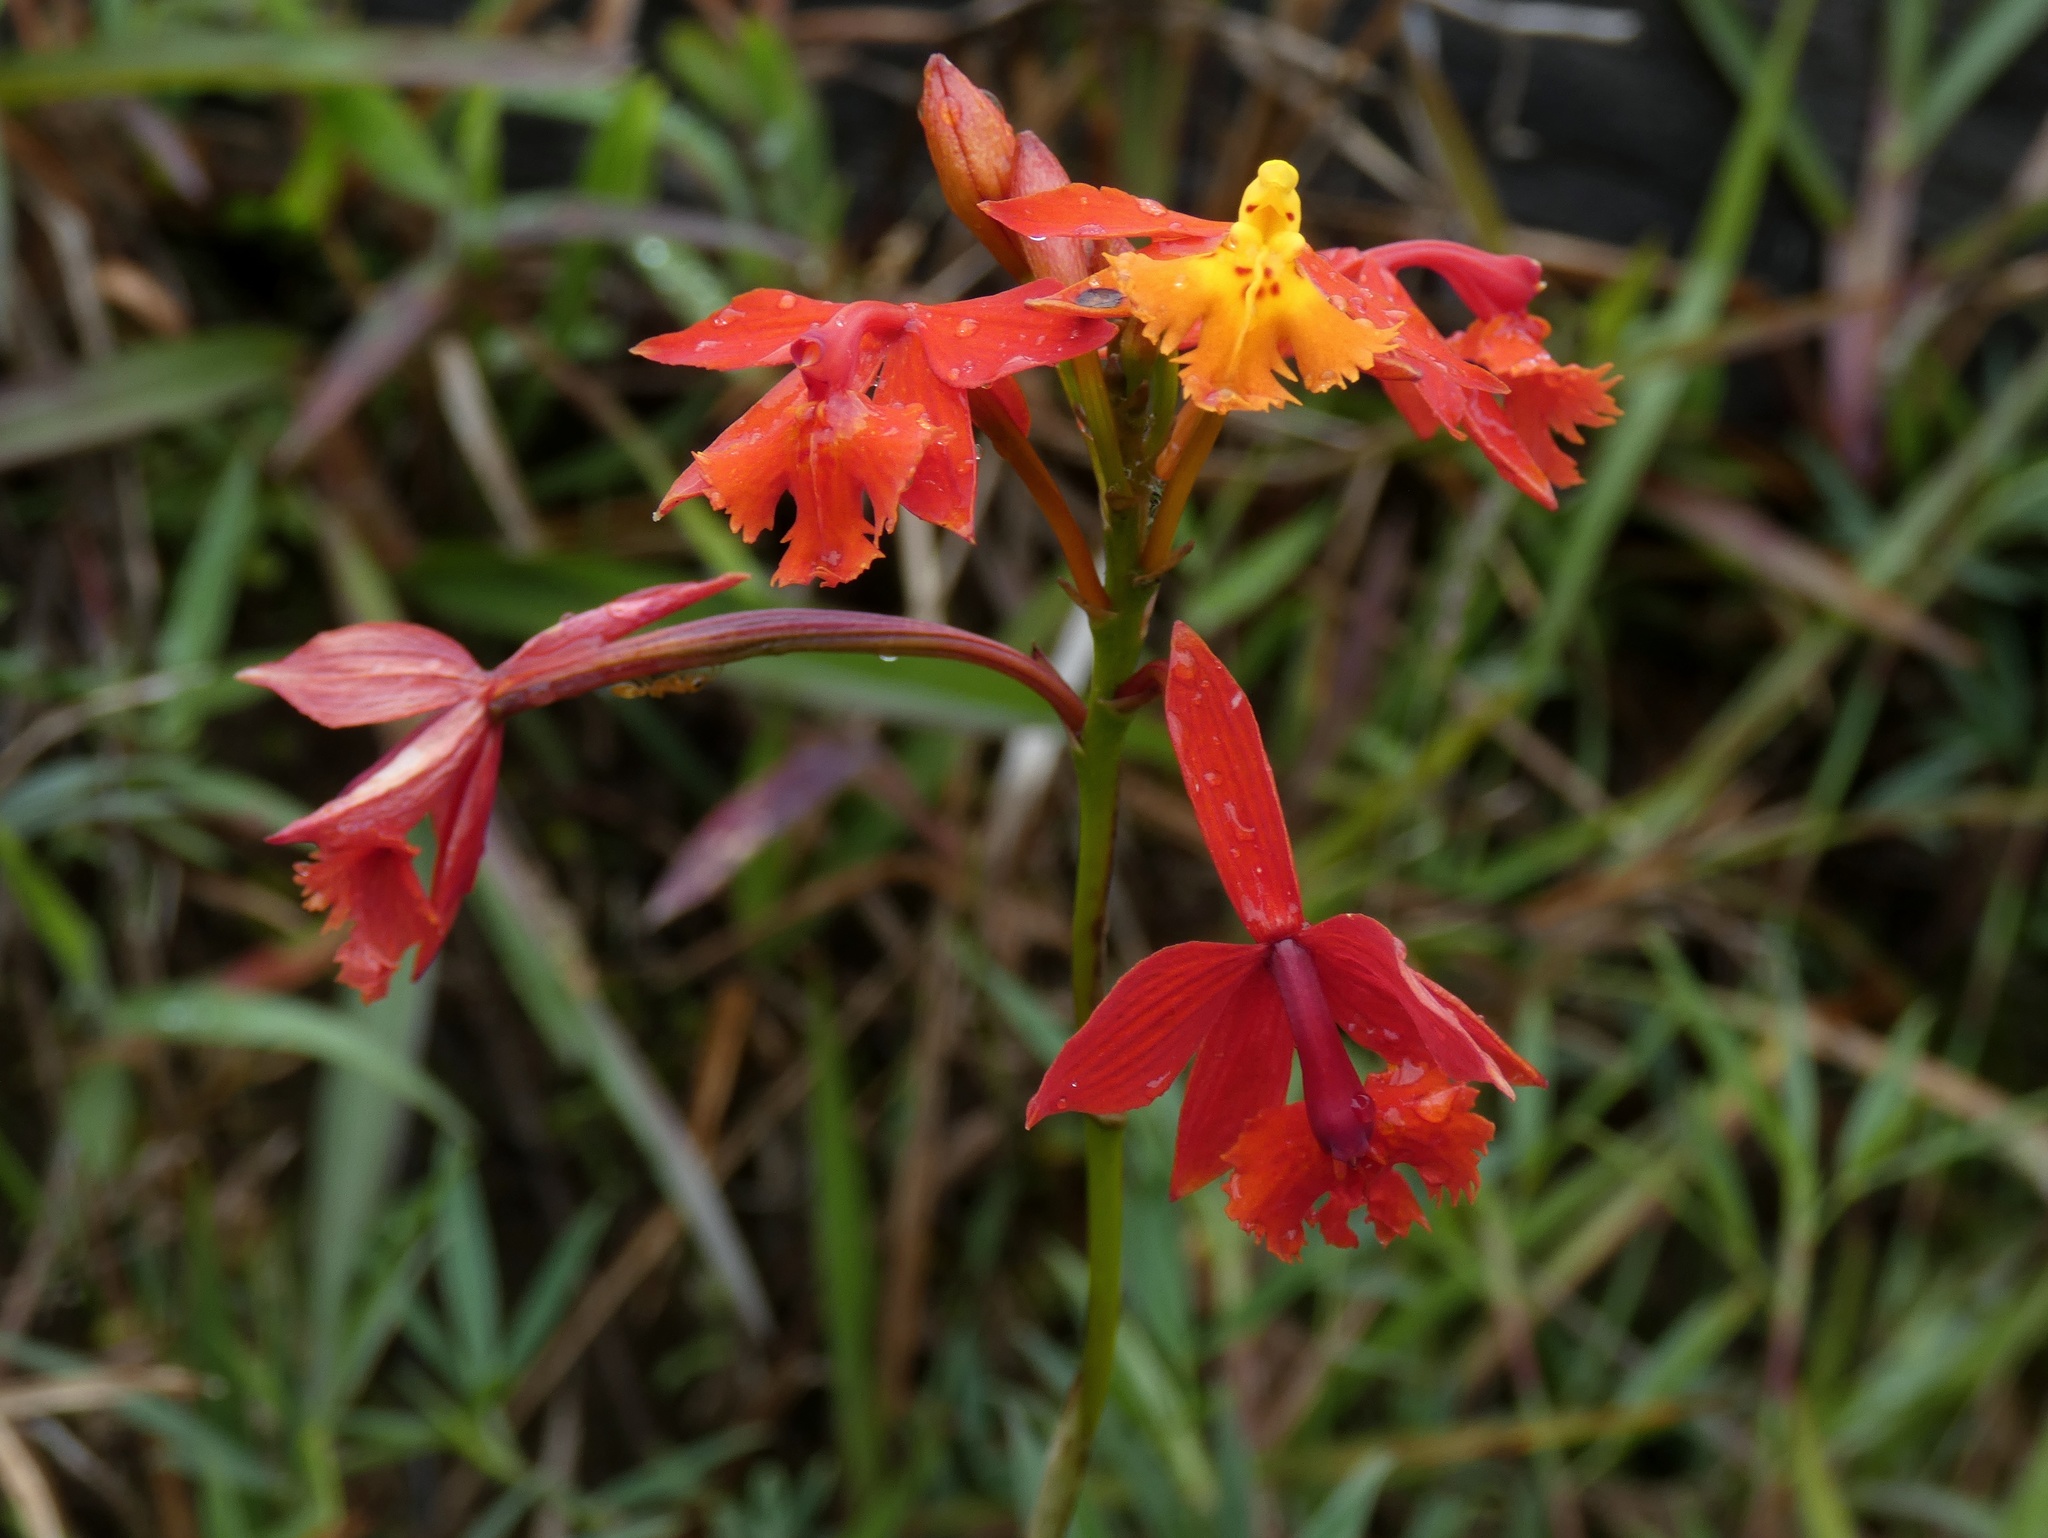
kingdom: Plantae
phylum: Tracheophyta
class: Liliopsida
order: Asparagales
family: Orchidaceae
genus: Epidendrum
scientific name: Epidendrum radicans
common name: Fire star orchid
